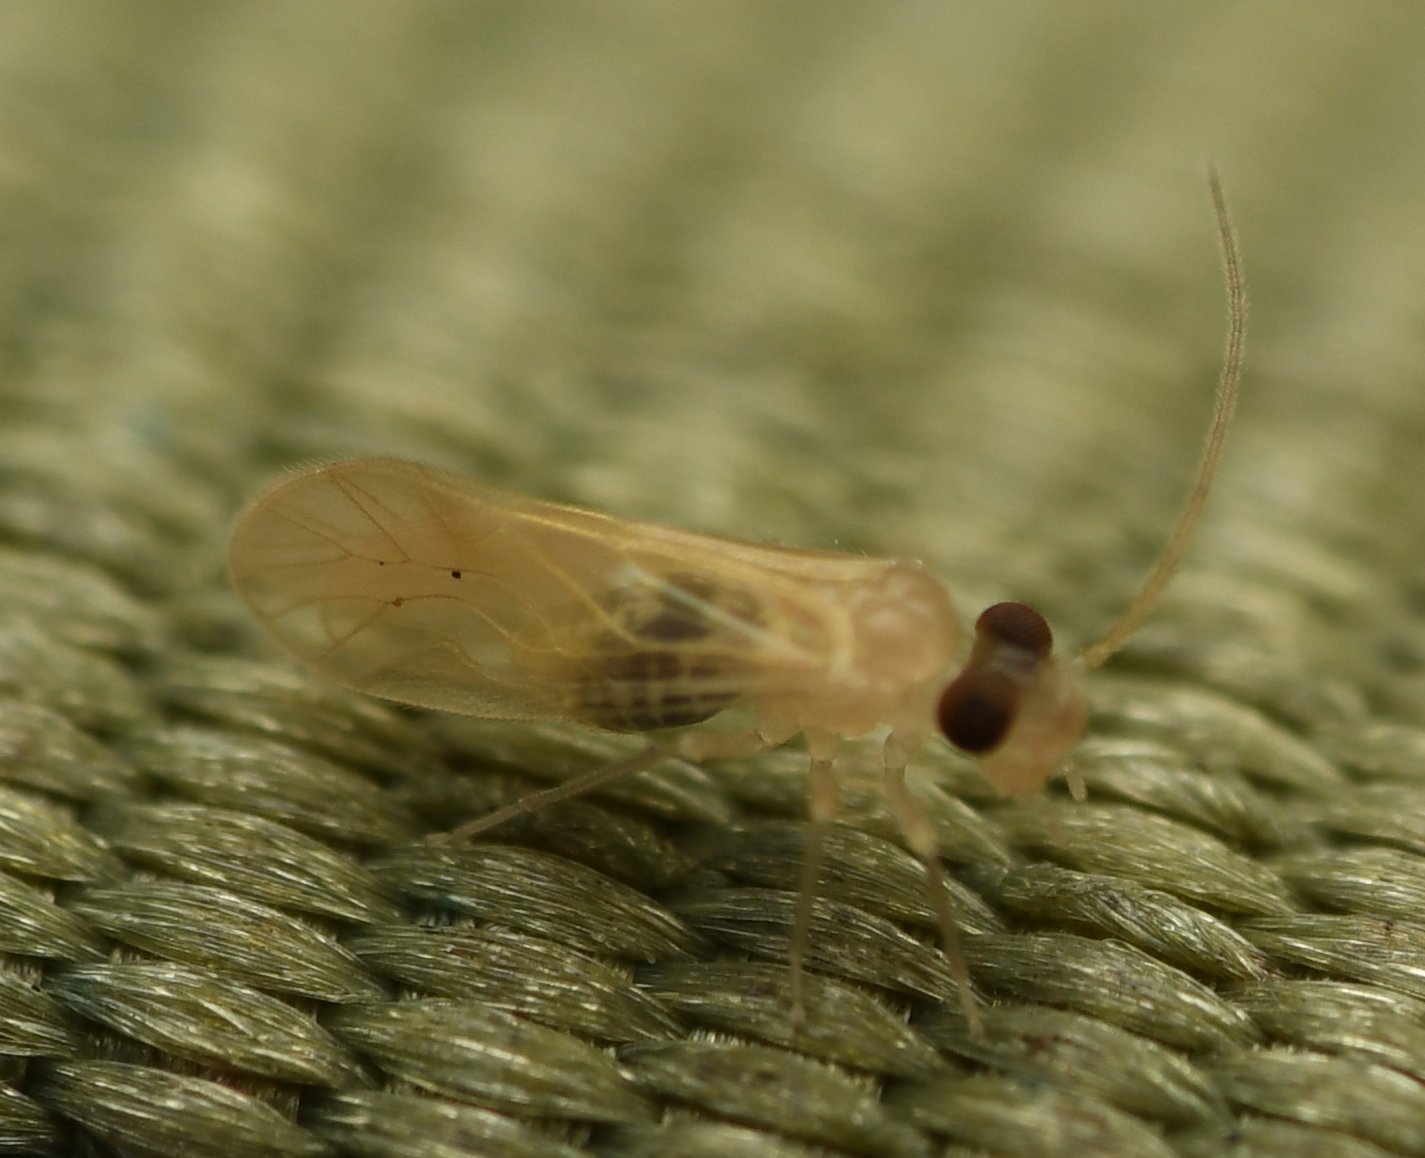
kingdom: Animalia
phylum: Arthropoda
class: Insecta
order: Psocodea
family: Caeciliusidae
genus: Valenzuela
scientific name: Valenzuela indicator
